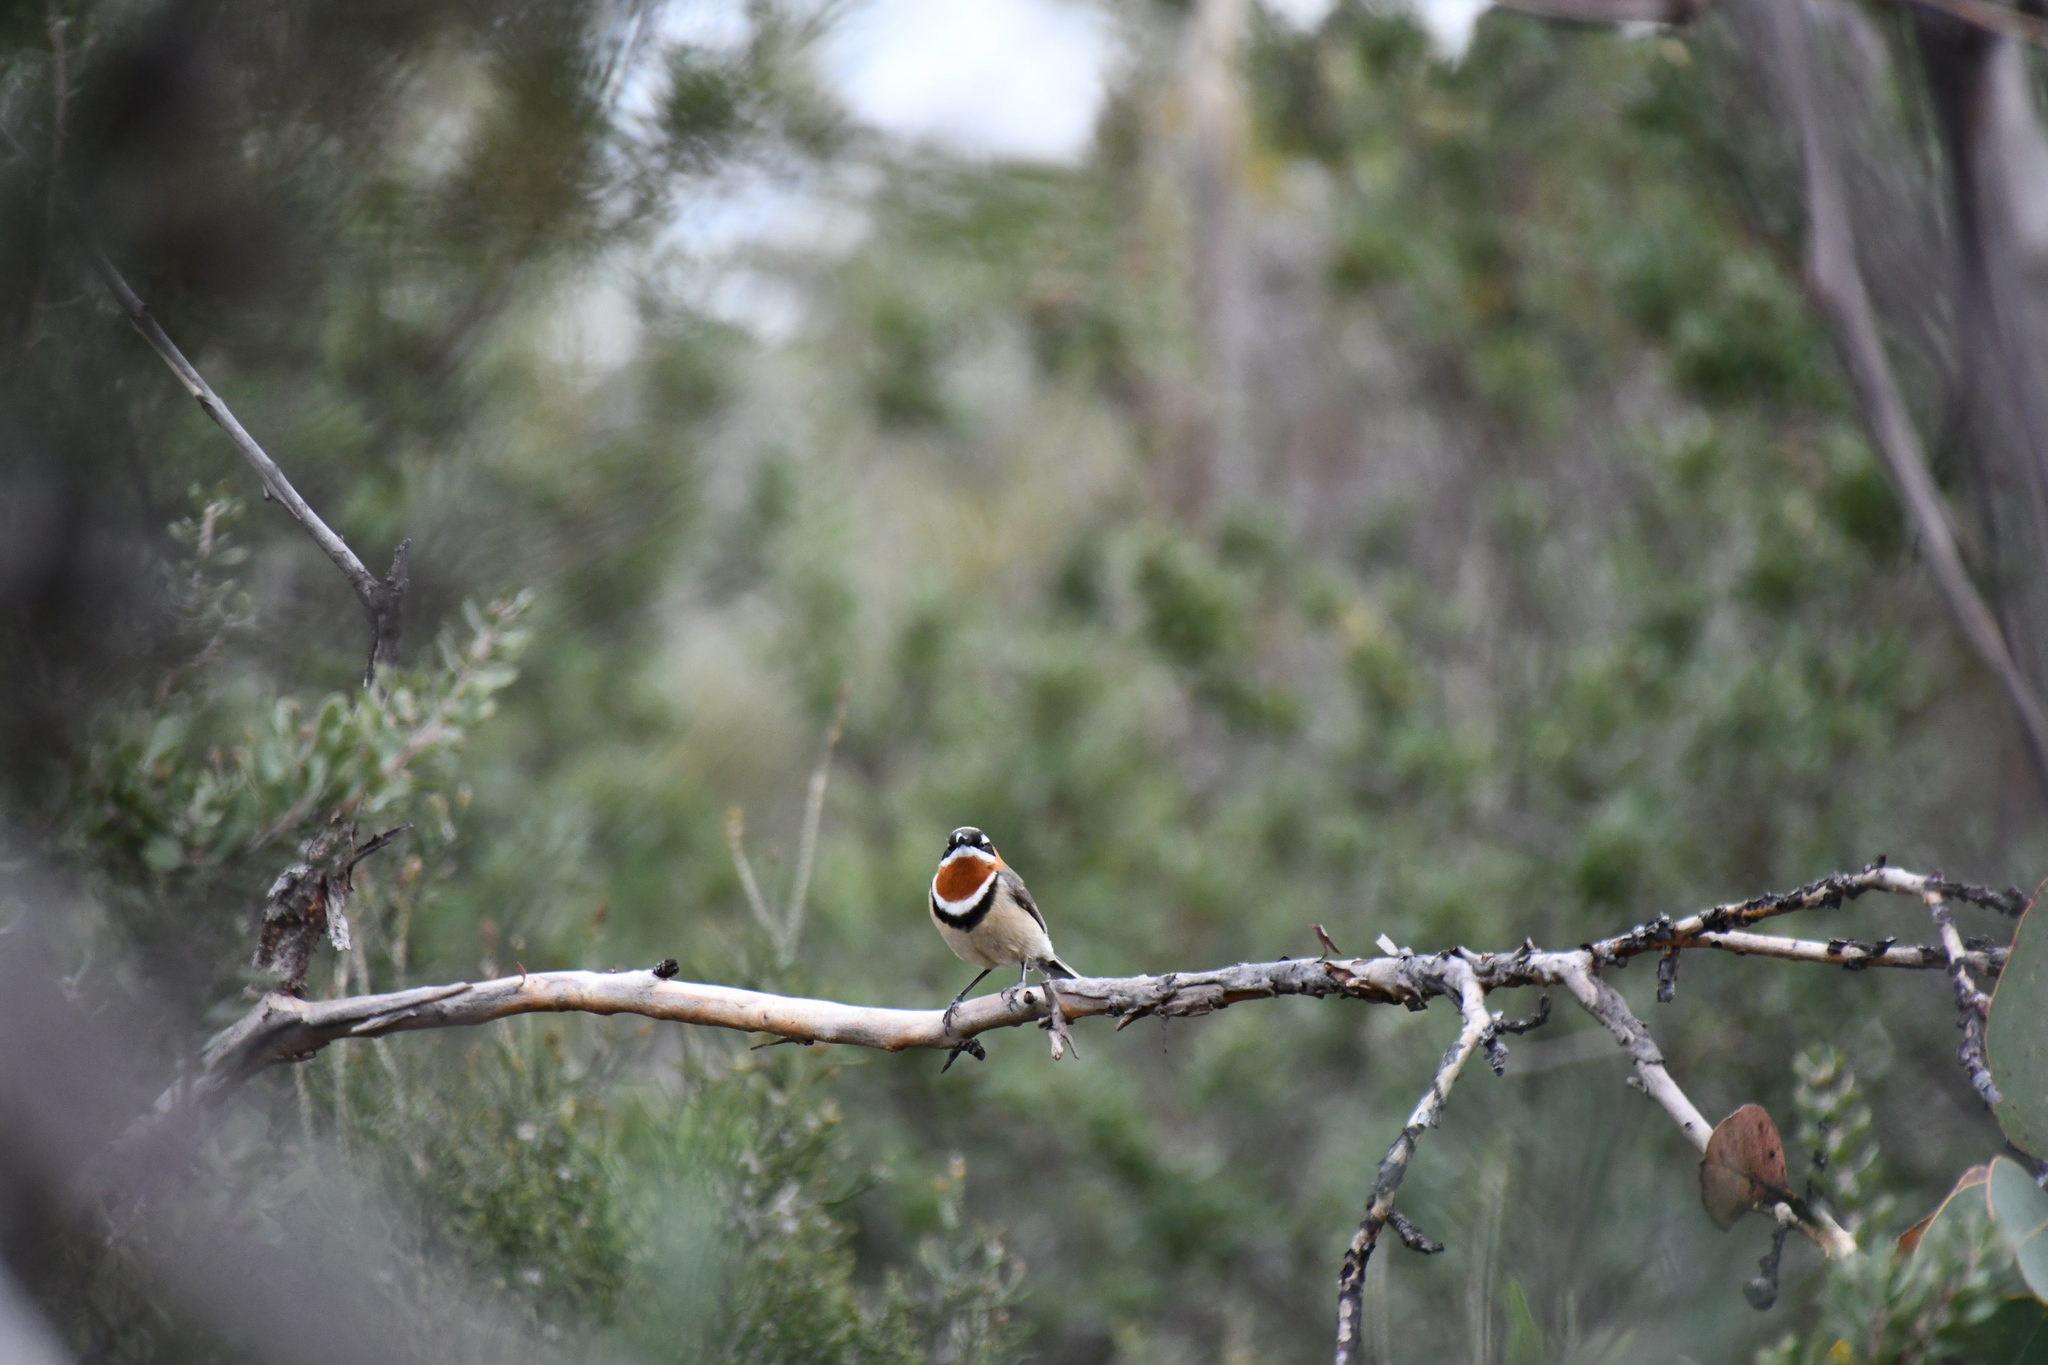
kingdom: Animalia
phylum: Chordata
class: Aves
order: Passeriformes
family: Meliphagidae
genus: Acanthorhynchus
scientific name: Acanthorhynchus superciliosus
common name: Western spinebill
